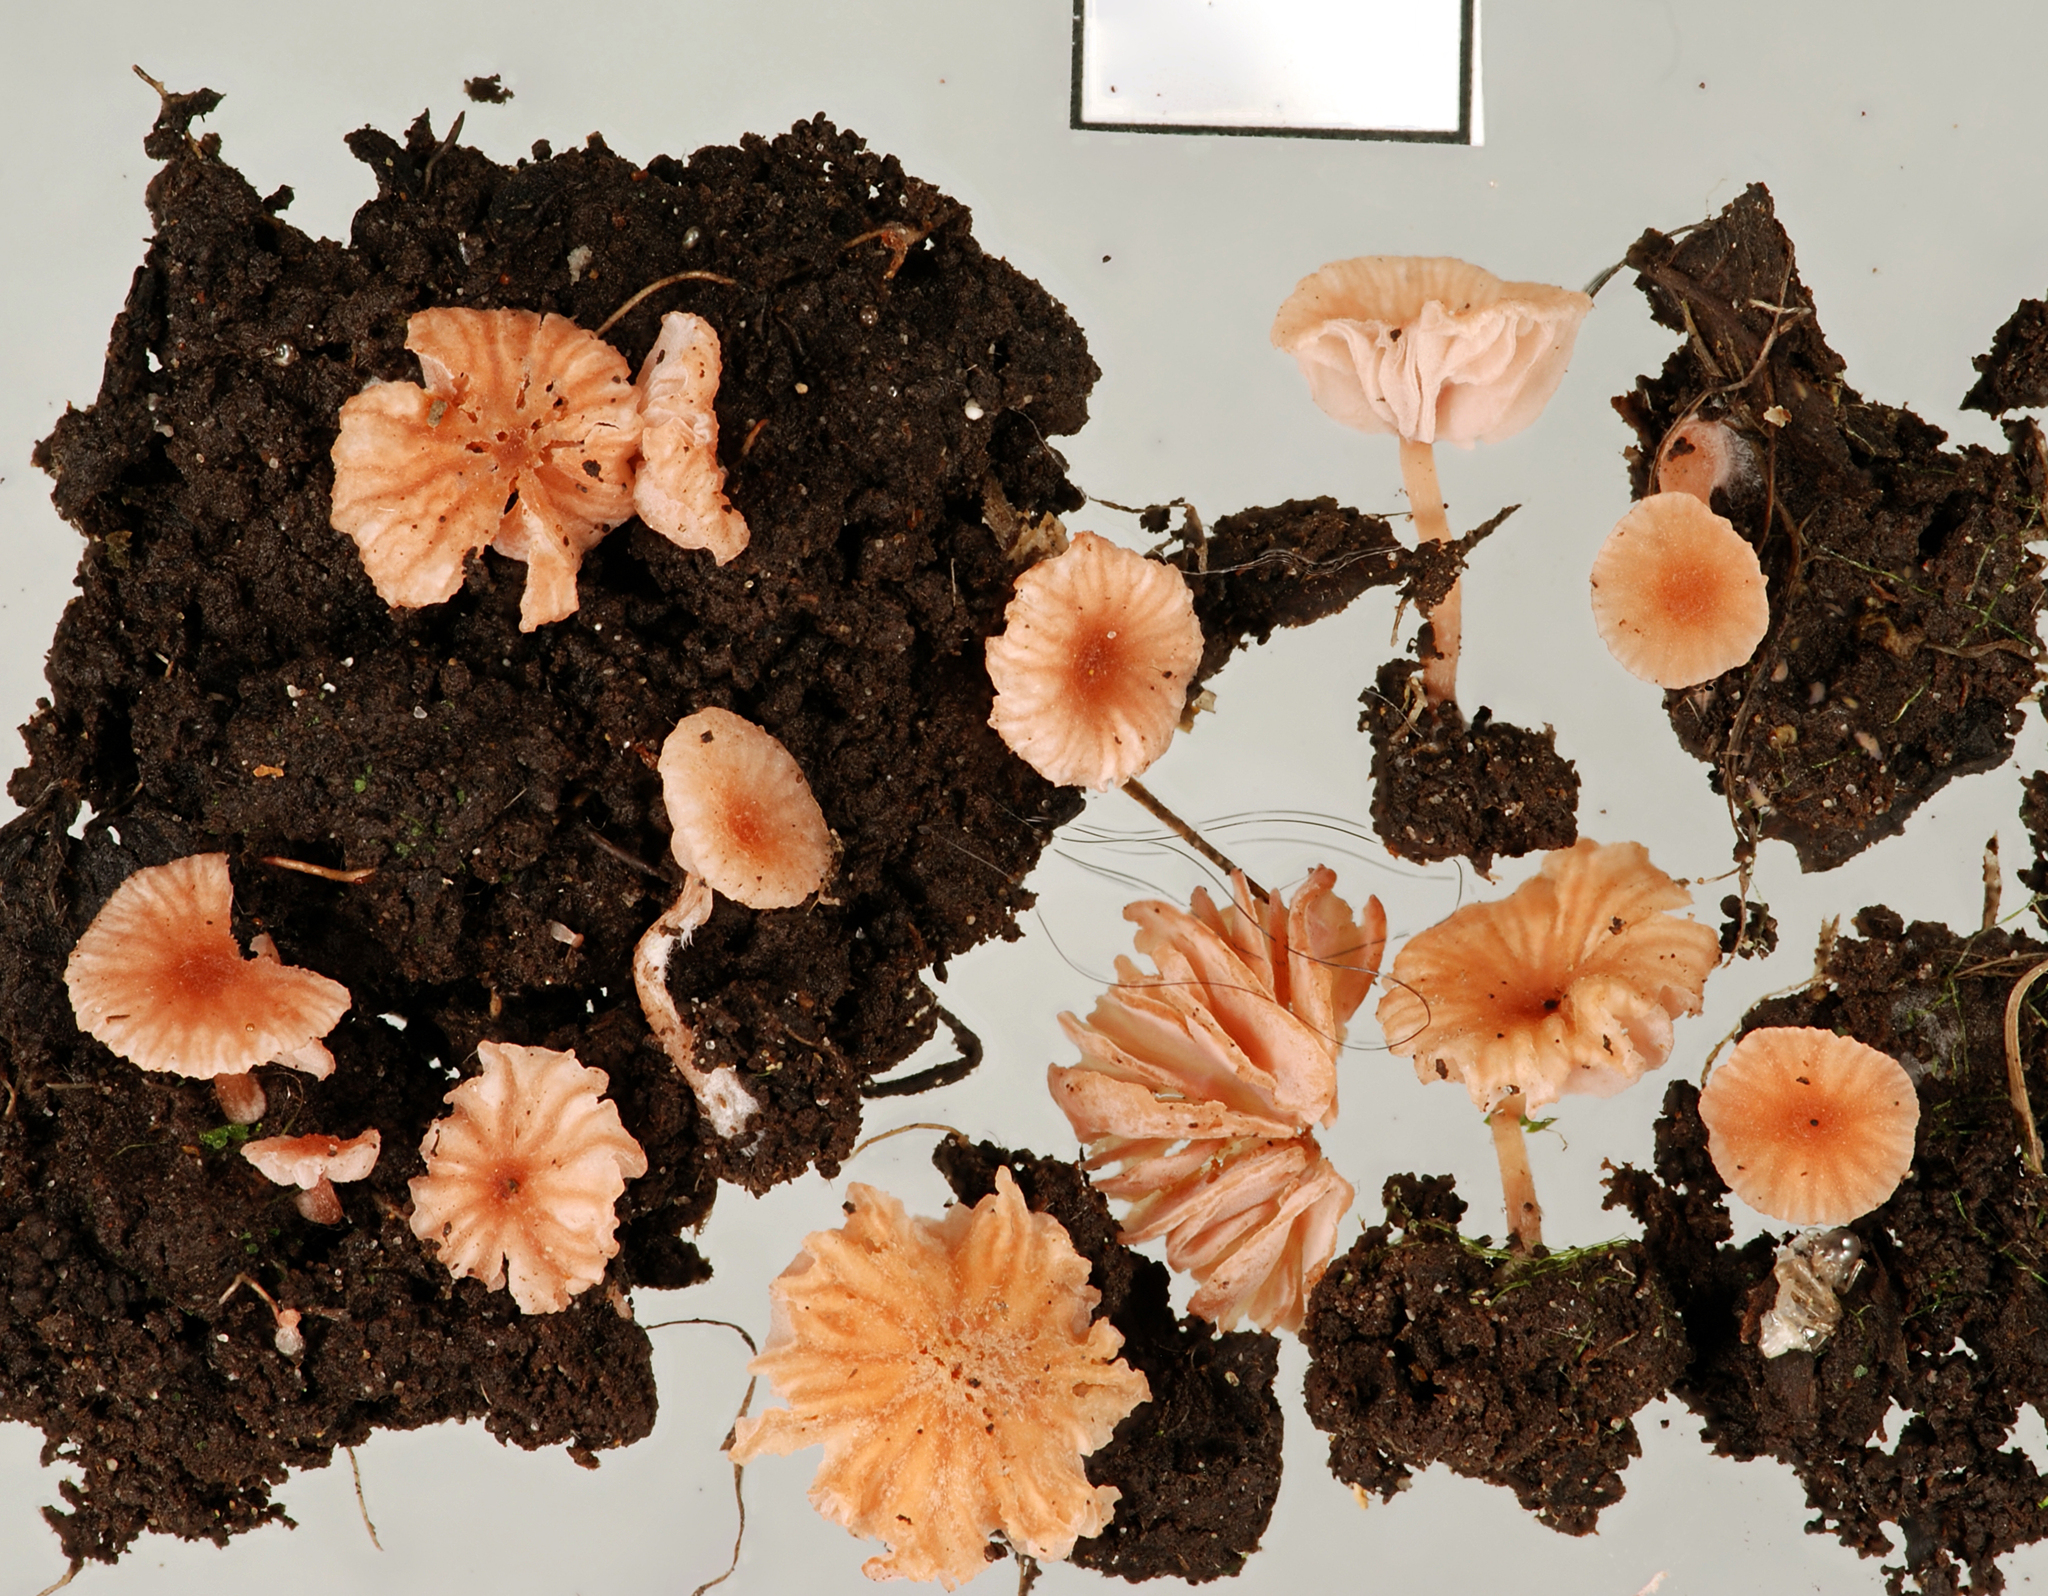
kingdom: Fungi
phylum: Basidiomycota
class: Agaricomycetes
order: Agaricales
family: Hydnangiaceae
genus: Laccaria
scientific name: Laccaria tortilis
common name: Twisted deceiver
